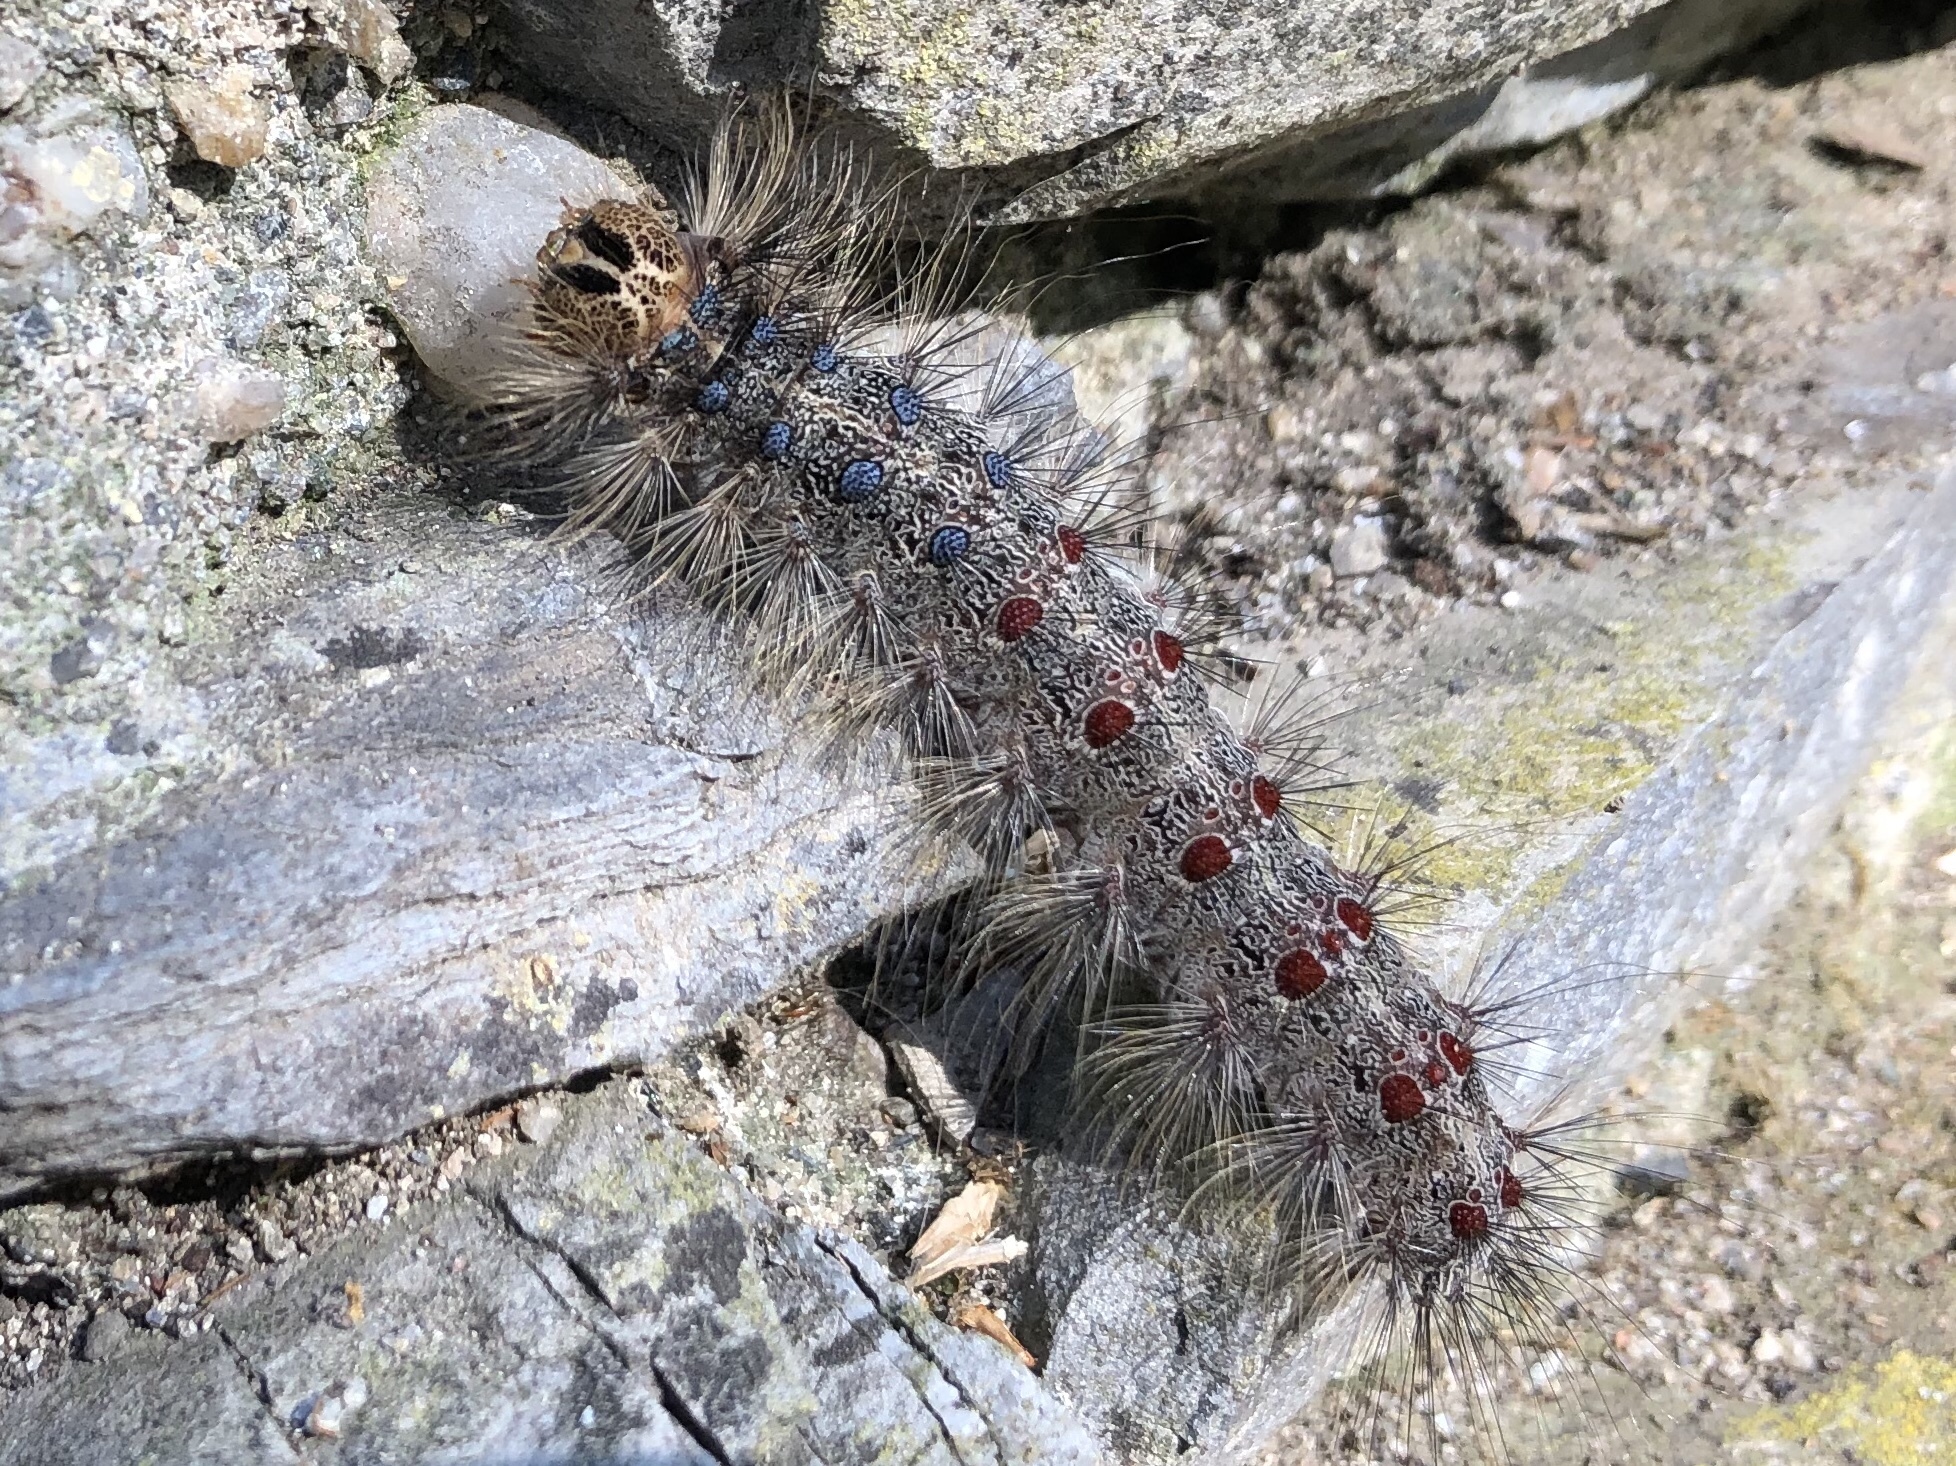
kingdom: Animalia
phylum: Arthropoda
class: Insecta
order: Lepidoptera
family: Erebidae
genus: Lymantria
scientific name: Lymantria dispar
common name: Gypsy moth
